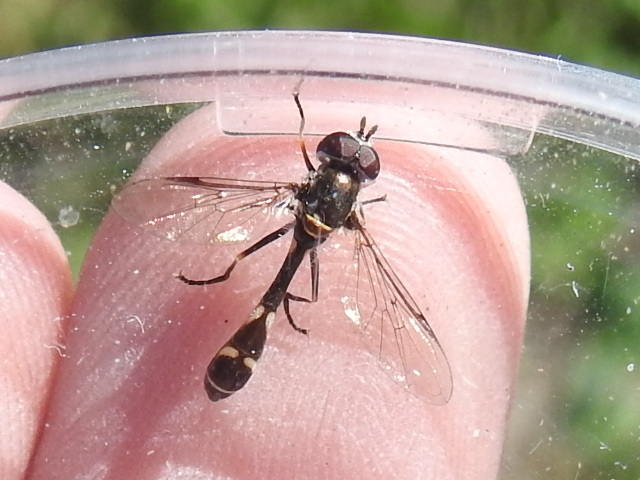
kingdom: Animalia
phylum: Arthropoda
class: Insecta
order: Diptera
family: Syrphidae
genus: Dioprosopa
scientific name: Dioprosopa clavatus
